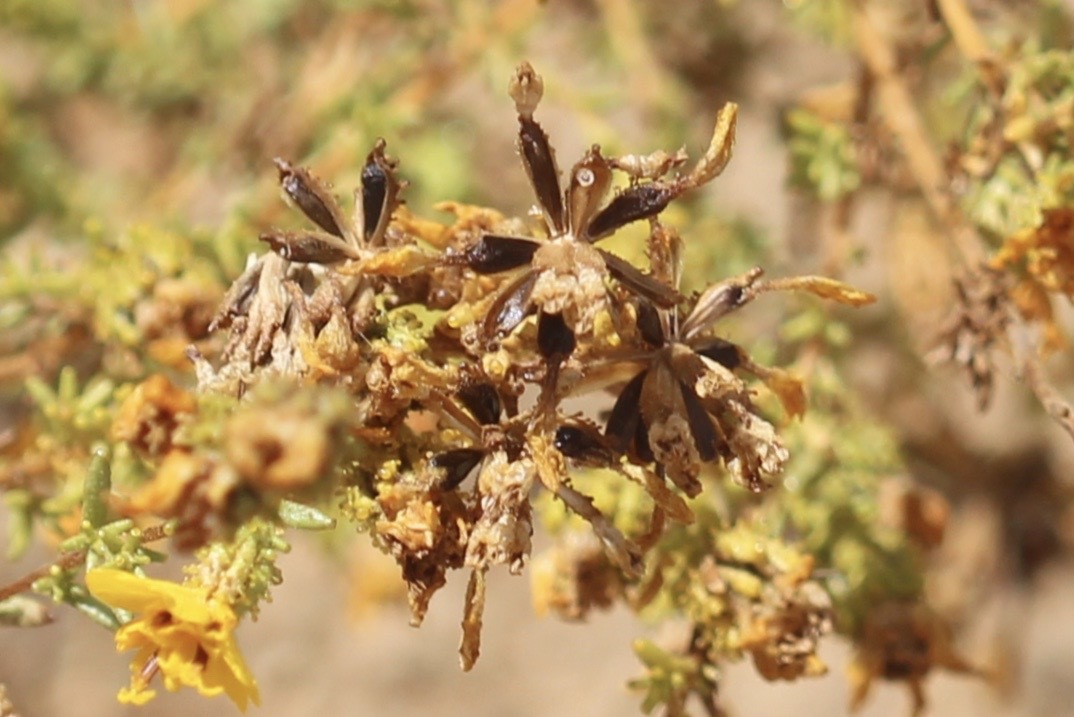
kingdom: Plantae
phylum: Tracheophyta
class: Magnoliopsida
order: Asterales
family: Asteraceae
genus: Holocarpha
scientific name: Holocarpha virgata
